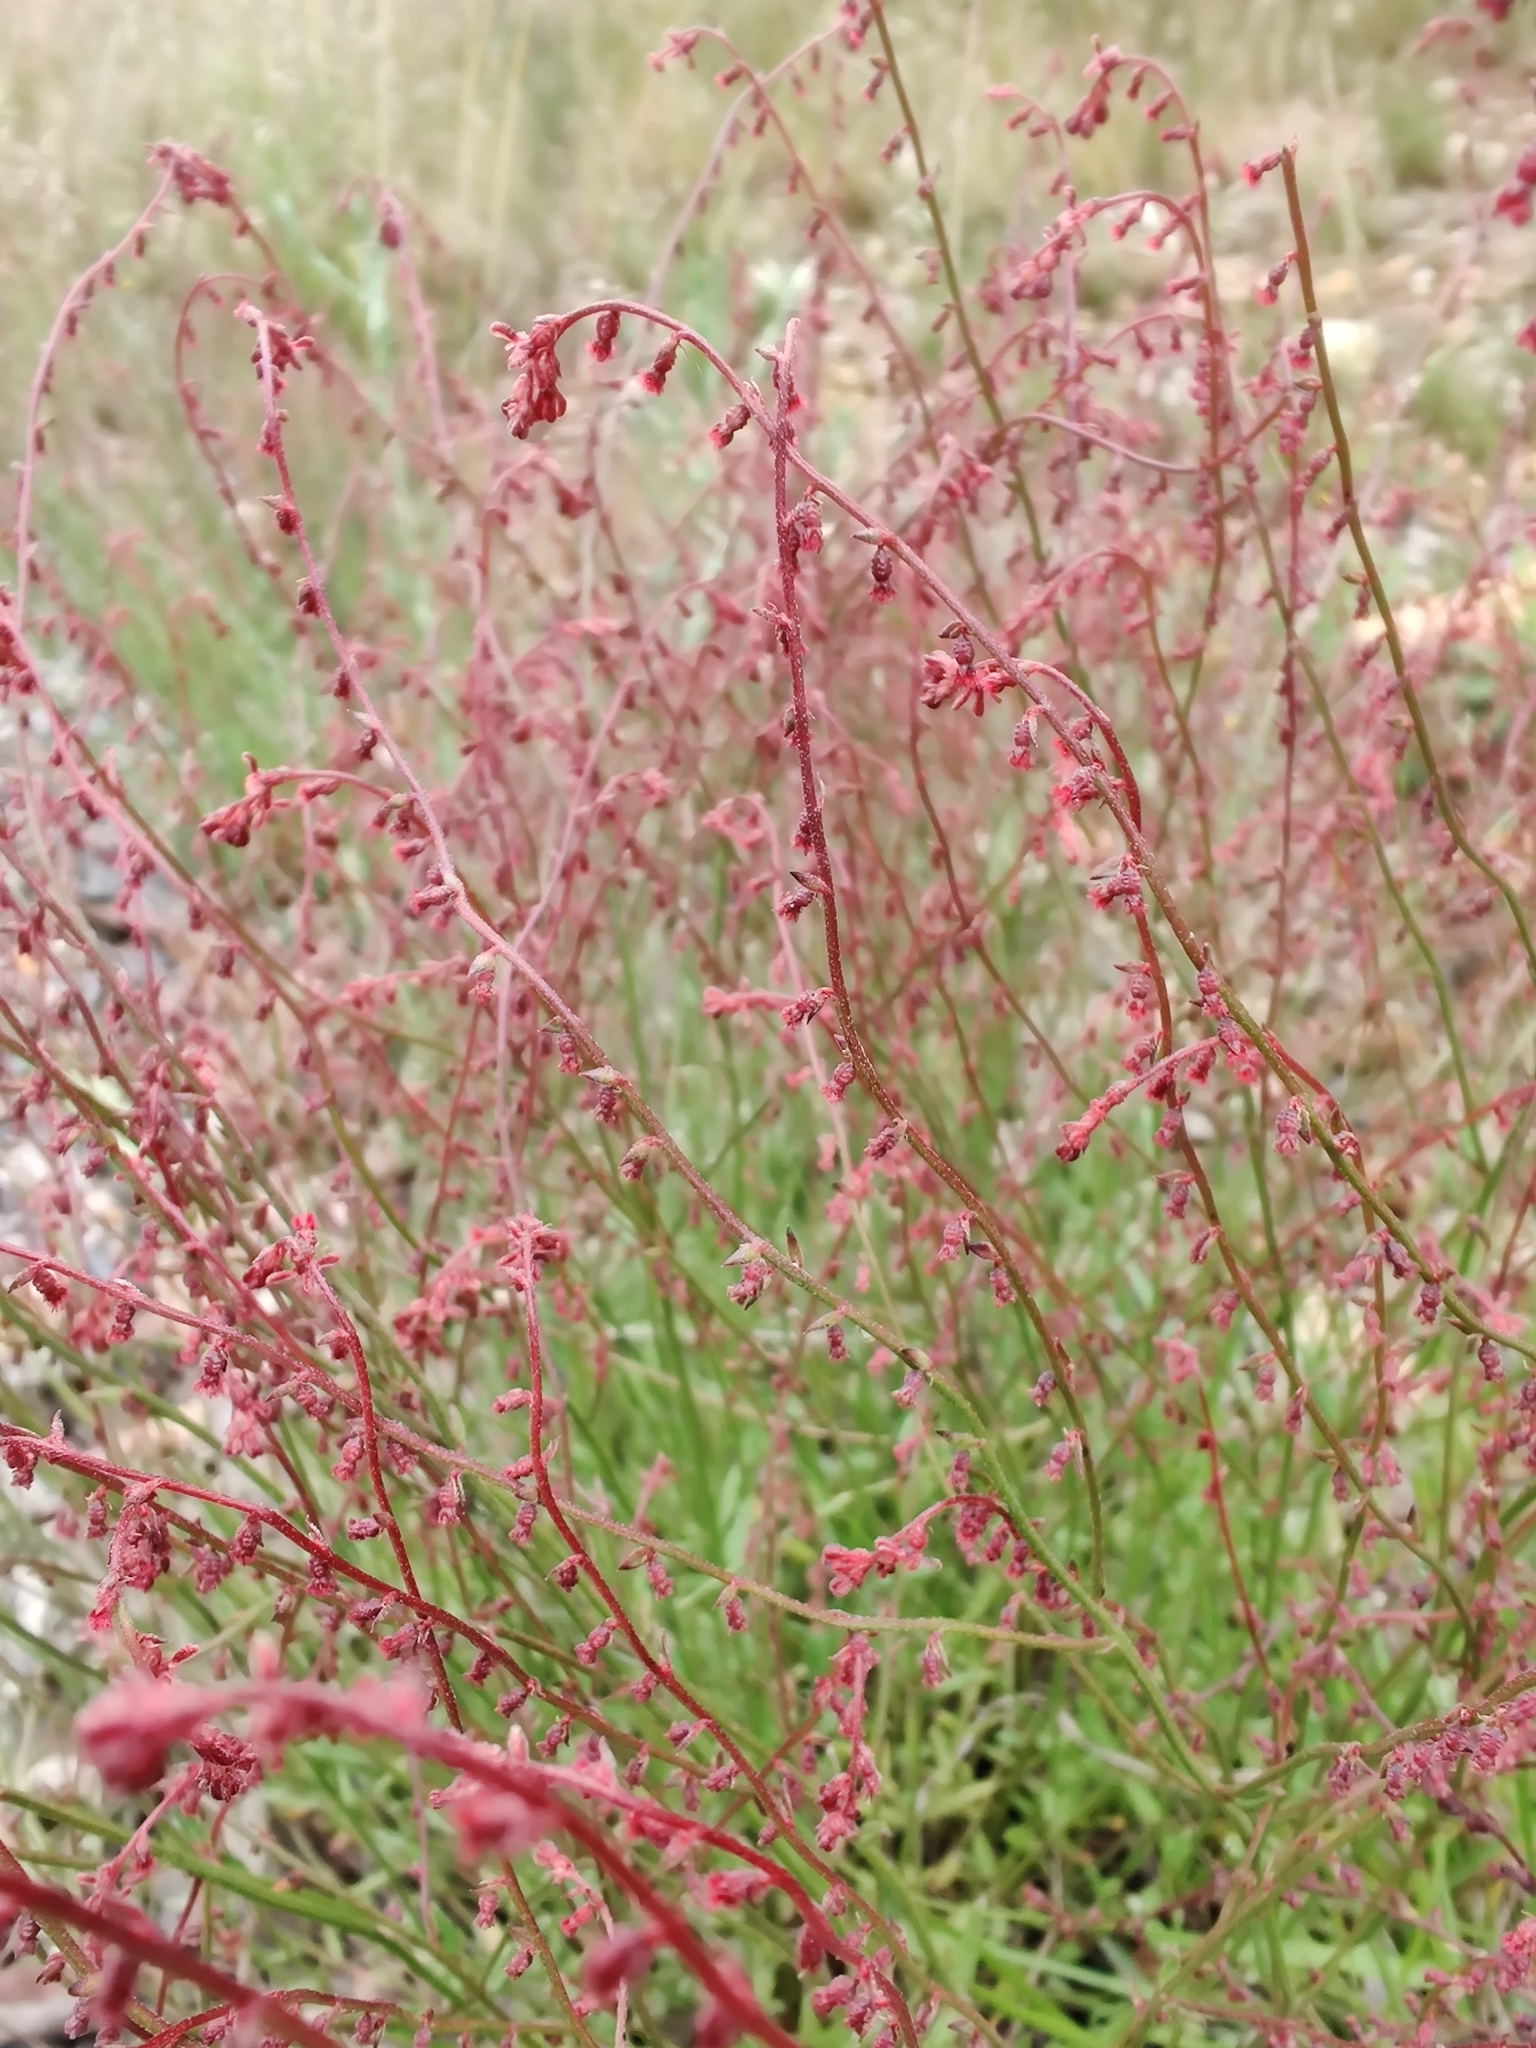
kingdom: Plantae
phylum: Tracheophyta
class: Magnoliopsida
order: Saxifragales
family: Haloragaceae
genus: Gonocarpus
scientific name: Gonocarpus tetragynus
